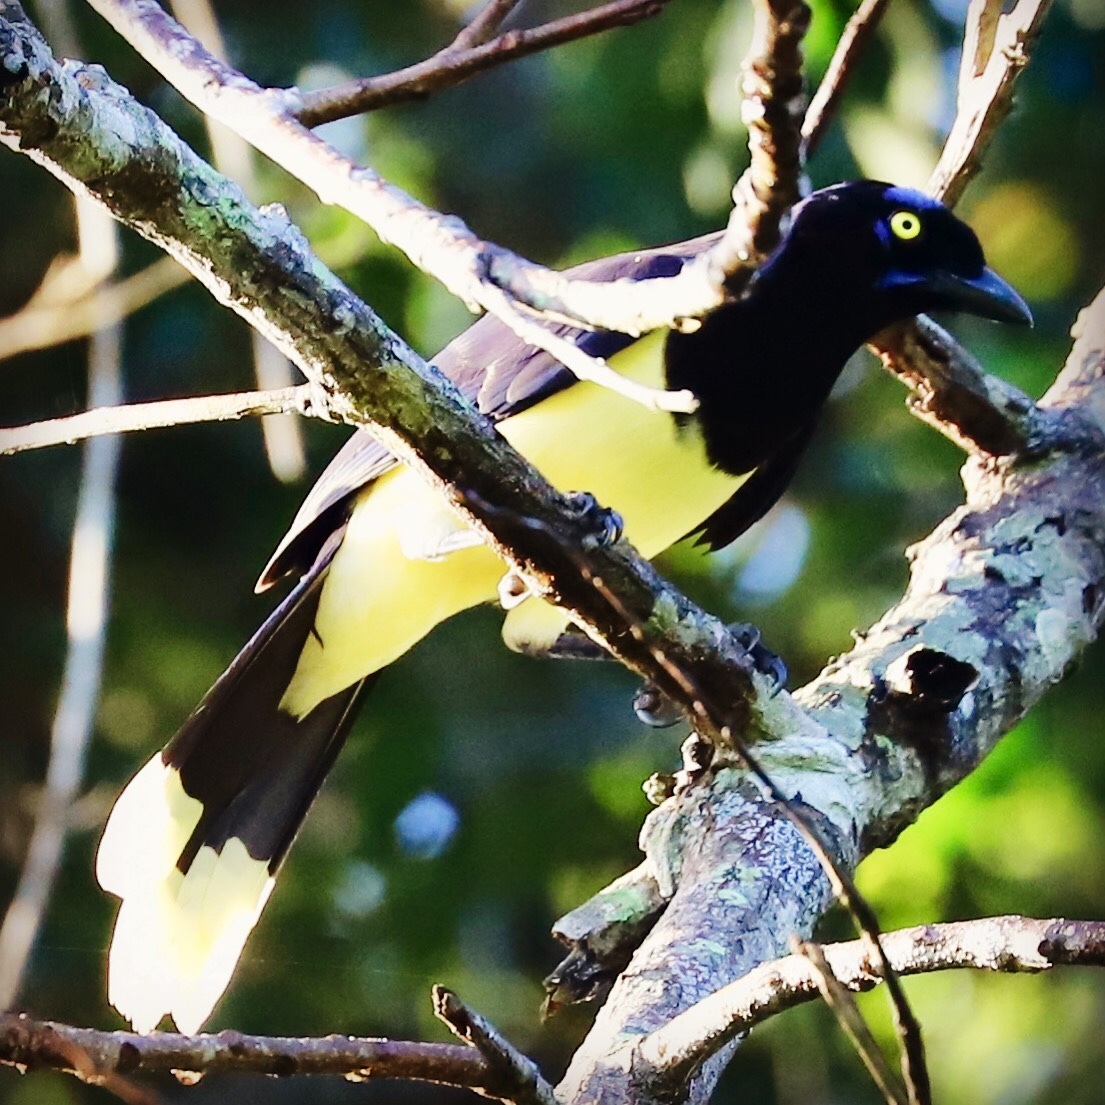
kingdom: Animalia
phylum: Chordata
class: Aves
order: Passeriformes
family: Corvidae
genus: Cyanocorax
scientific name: Cyanocorax affinis
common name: Black-chested jay
